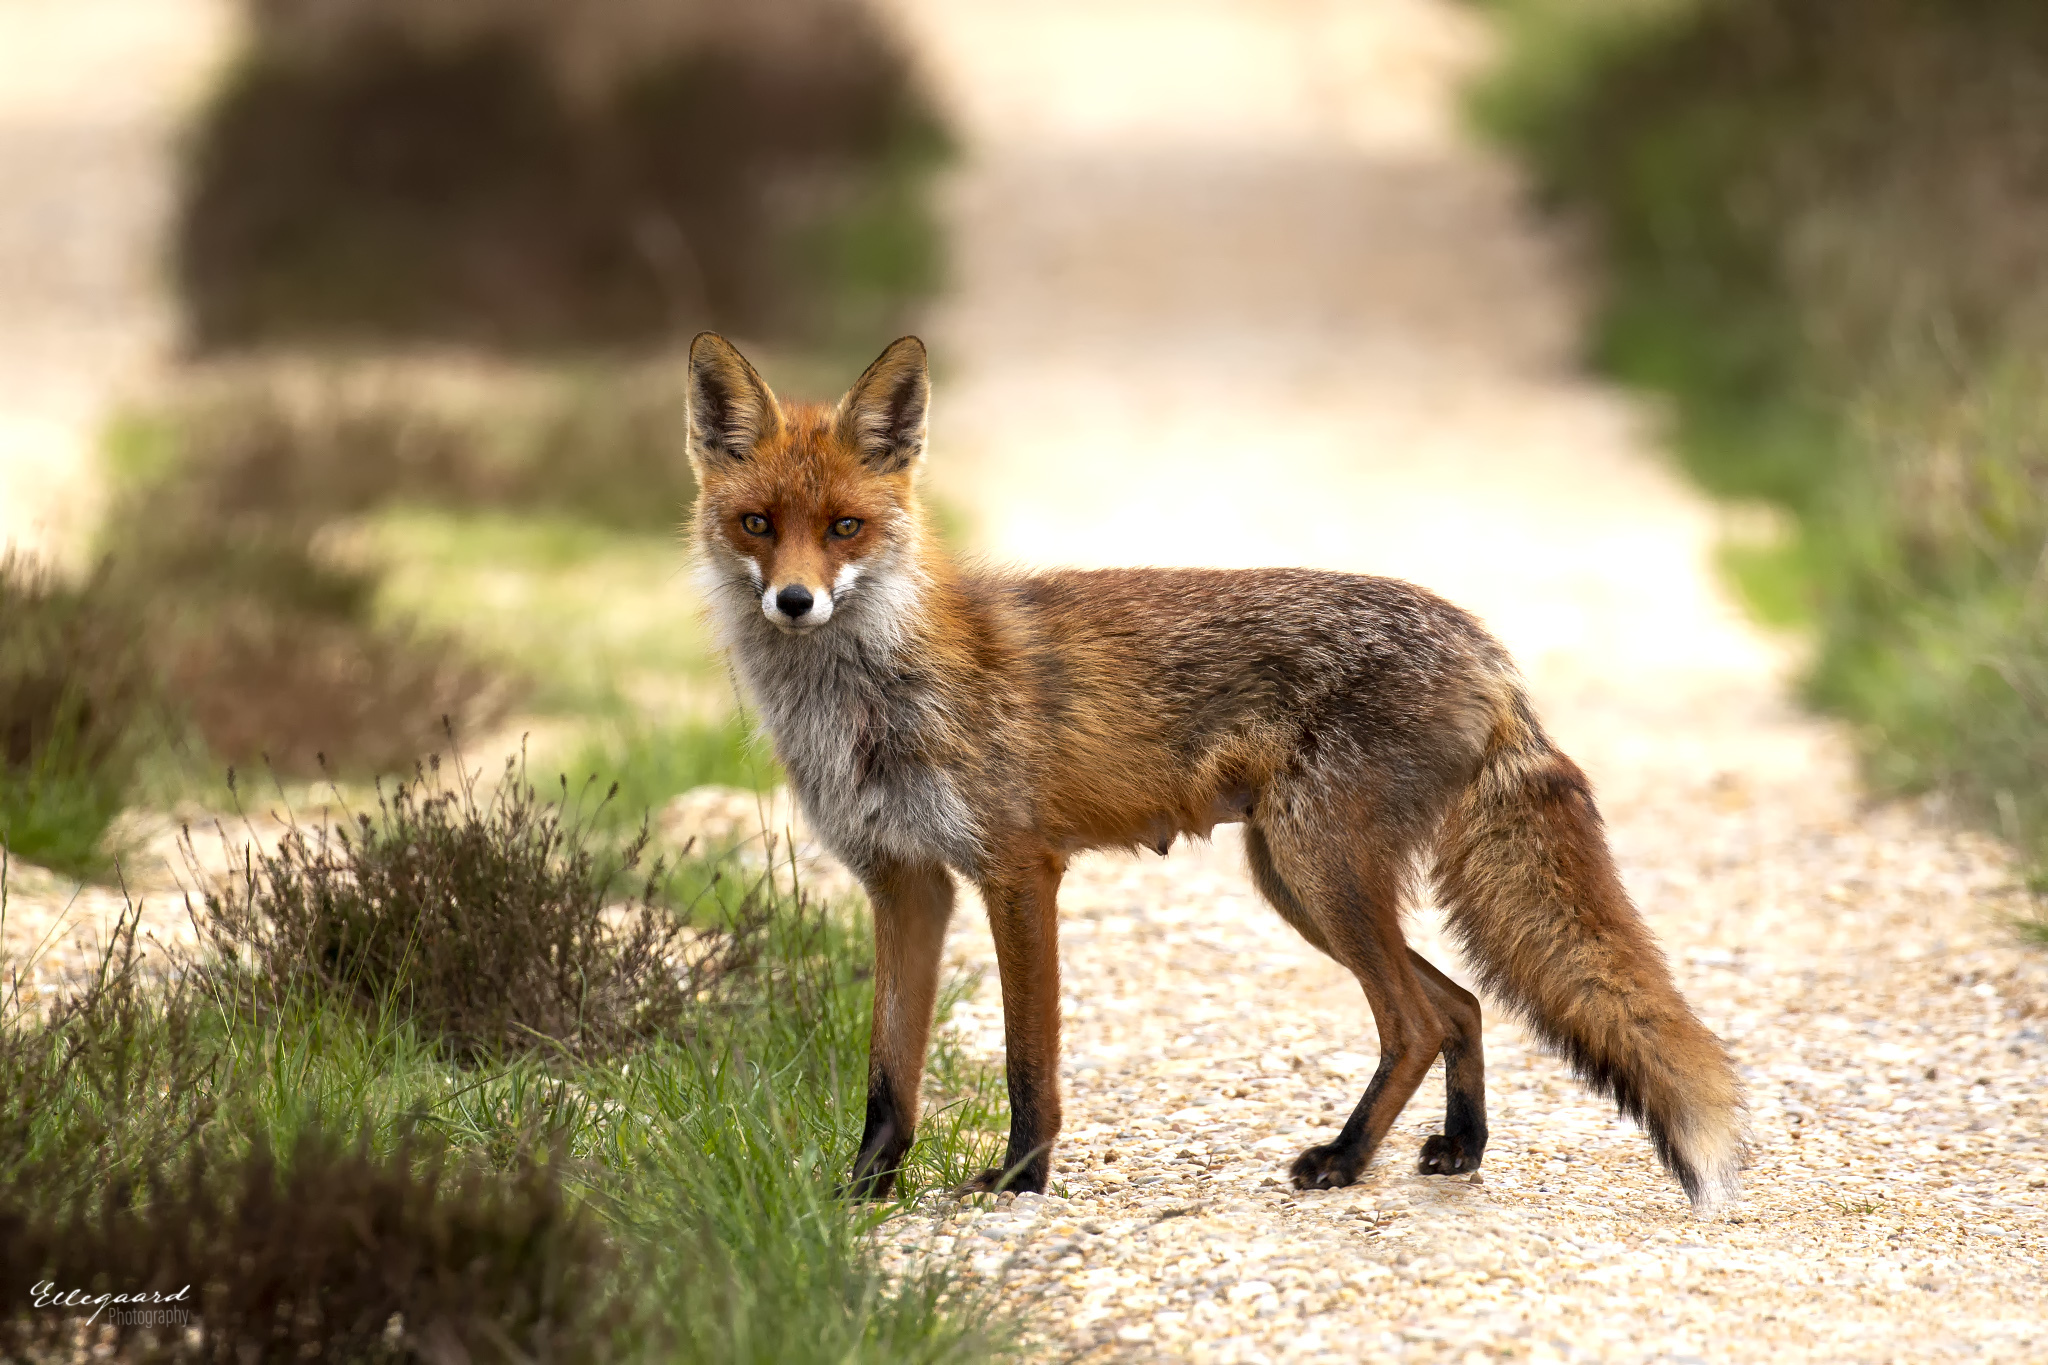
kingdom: Animalia
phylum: Chordata
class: Mammalia
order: Carnivora
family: Canidae
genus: Vulpes
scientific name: Vulpes vulpes
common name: Red fox
